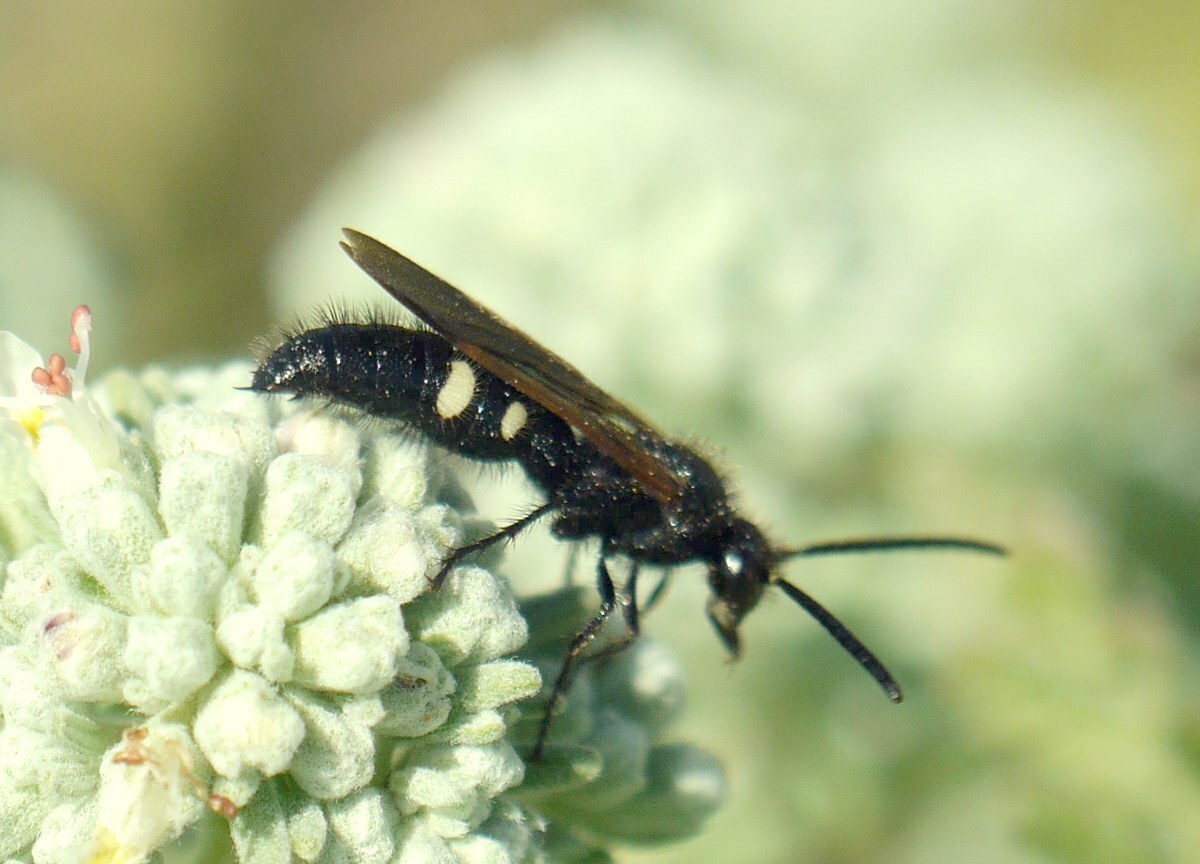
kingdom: Animalia
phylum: Arthropoda
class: Insecta
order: Hymenoptera
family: Vespidae
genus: Vespa
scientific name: Vespa sexmaculata
